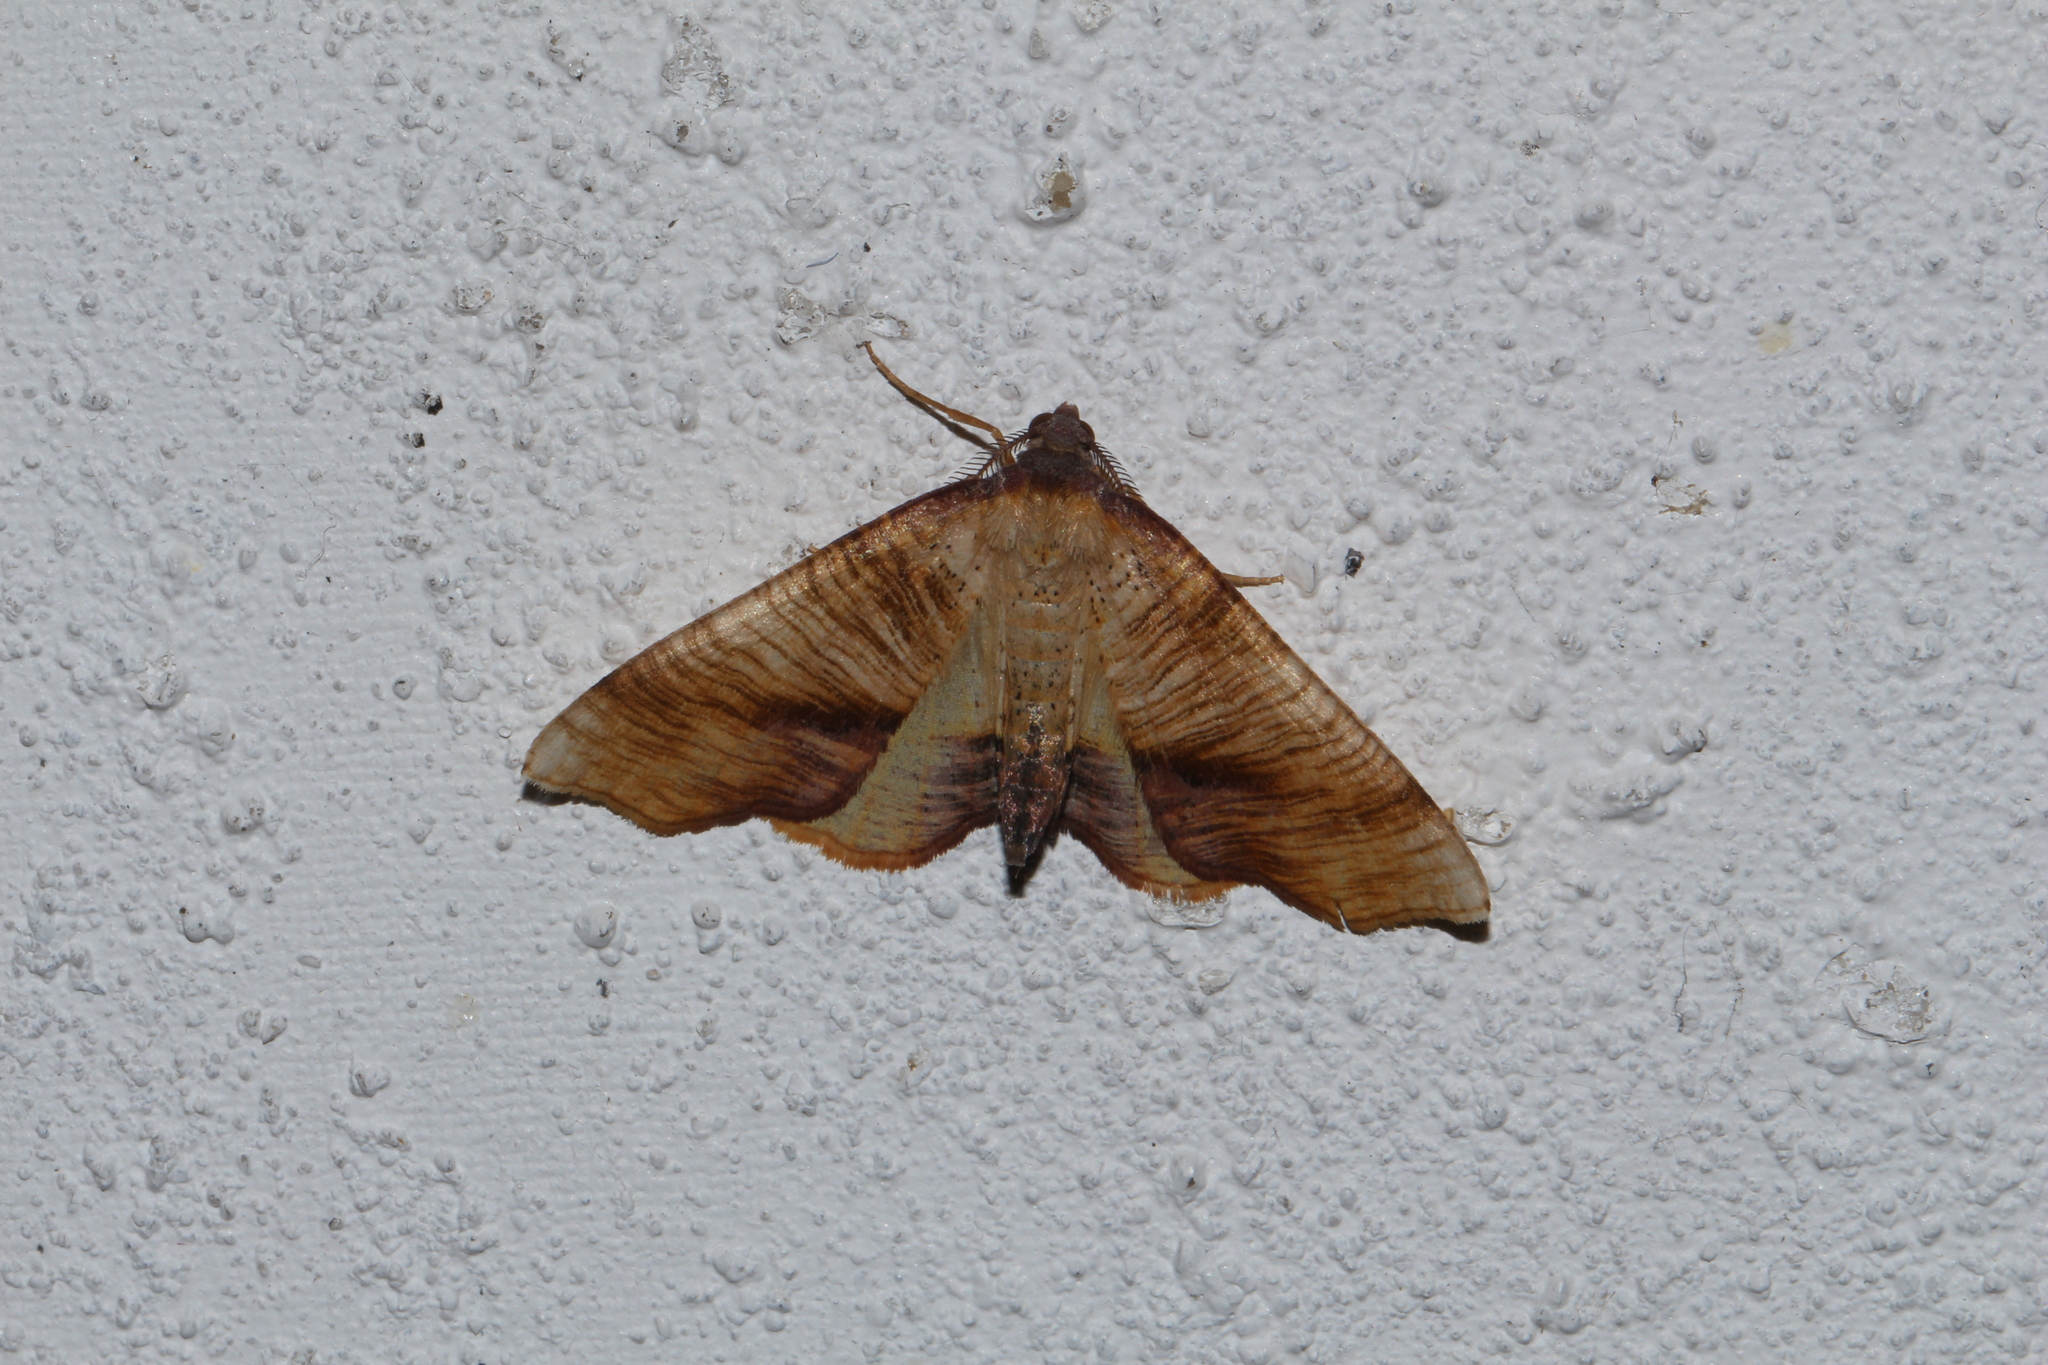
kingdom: Animalia
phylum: Arthropoda
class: Insecta
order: Lepidoptera
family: Geometridae
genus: Plagodis
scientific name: Plagodis dolabraria
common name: Scorched wing
